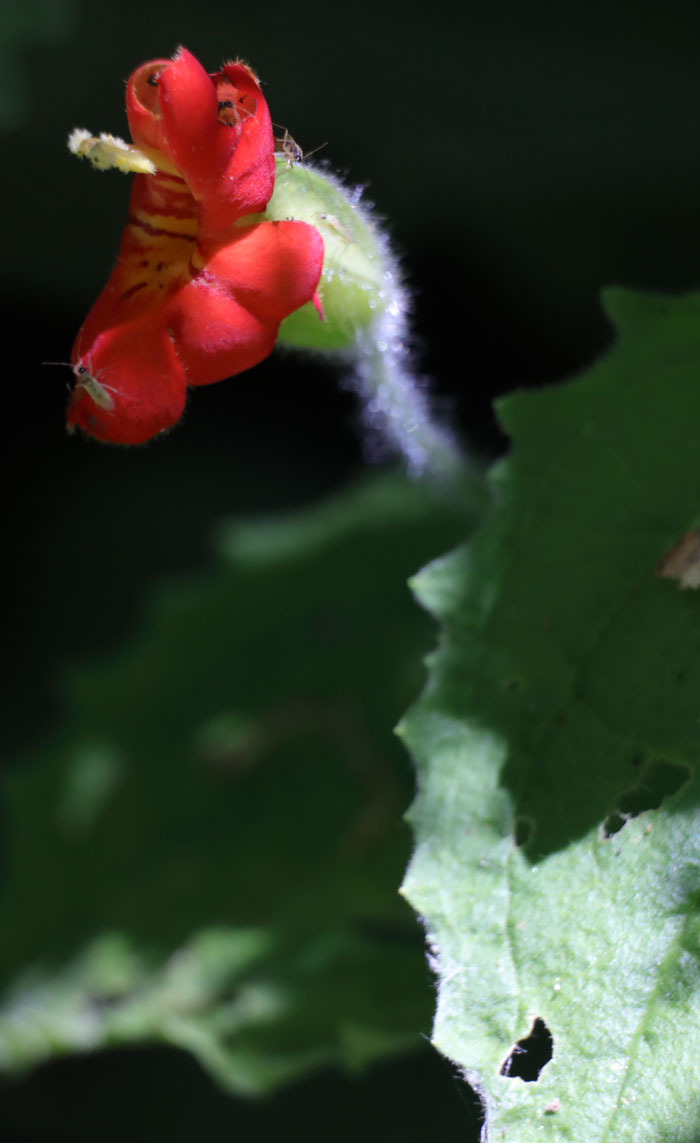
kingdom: Plantae
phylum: Tracheophyta
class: Magnoliopsida
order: Lamiales
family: Phrymaceae
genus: Erythranthe
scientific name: Erythranthe cardinalis
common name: Scarlet monkey-flower
